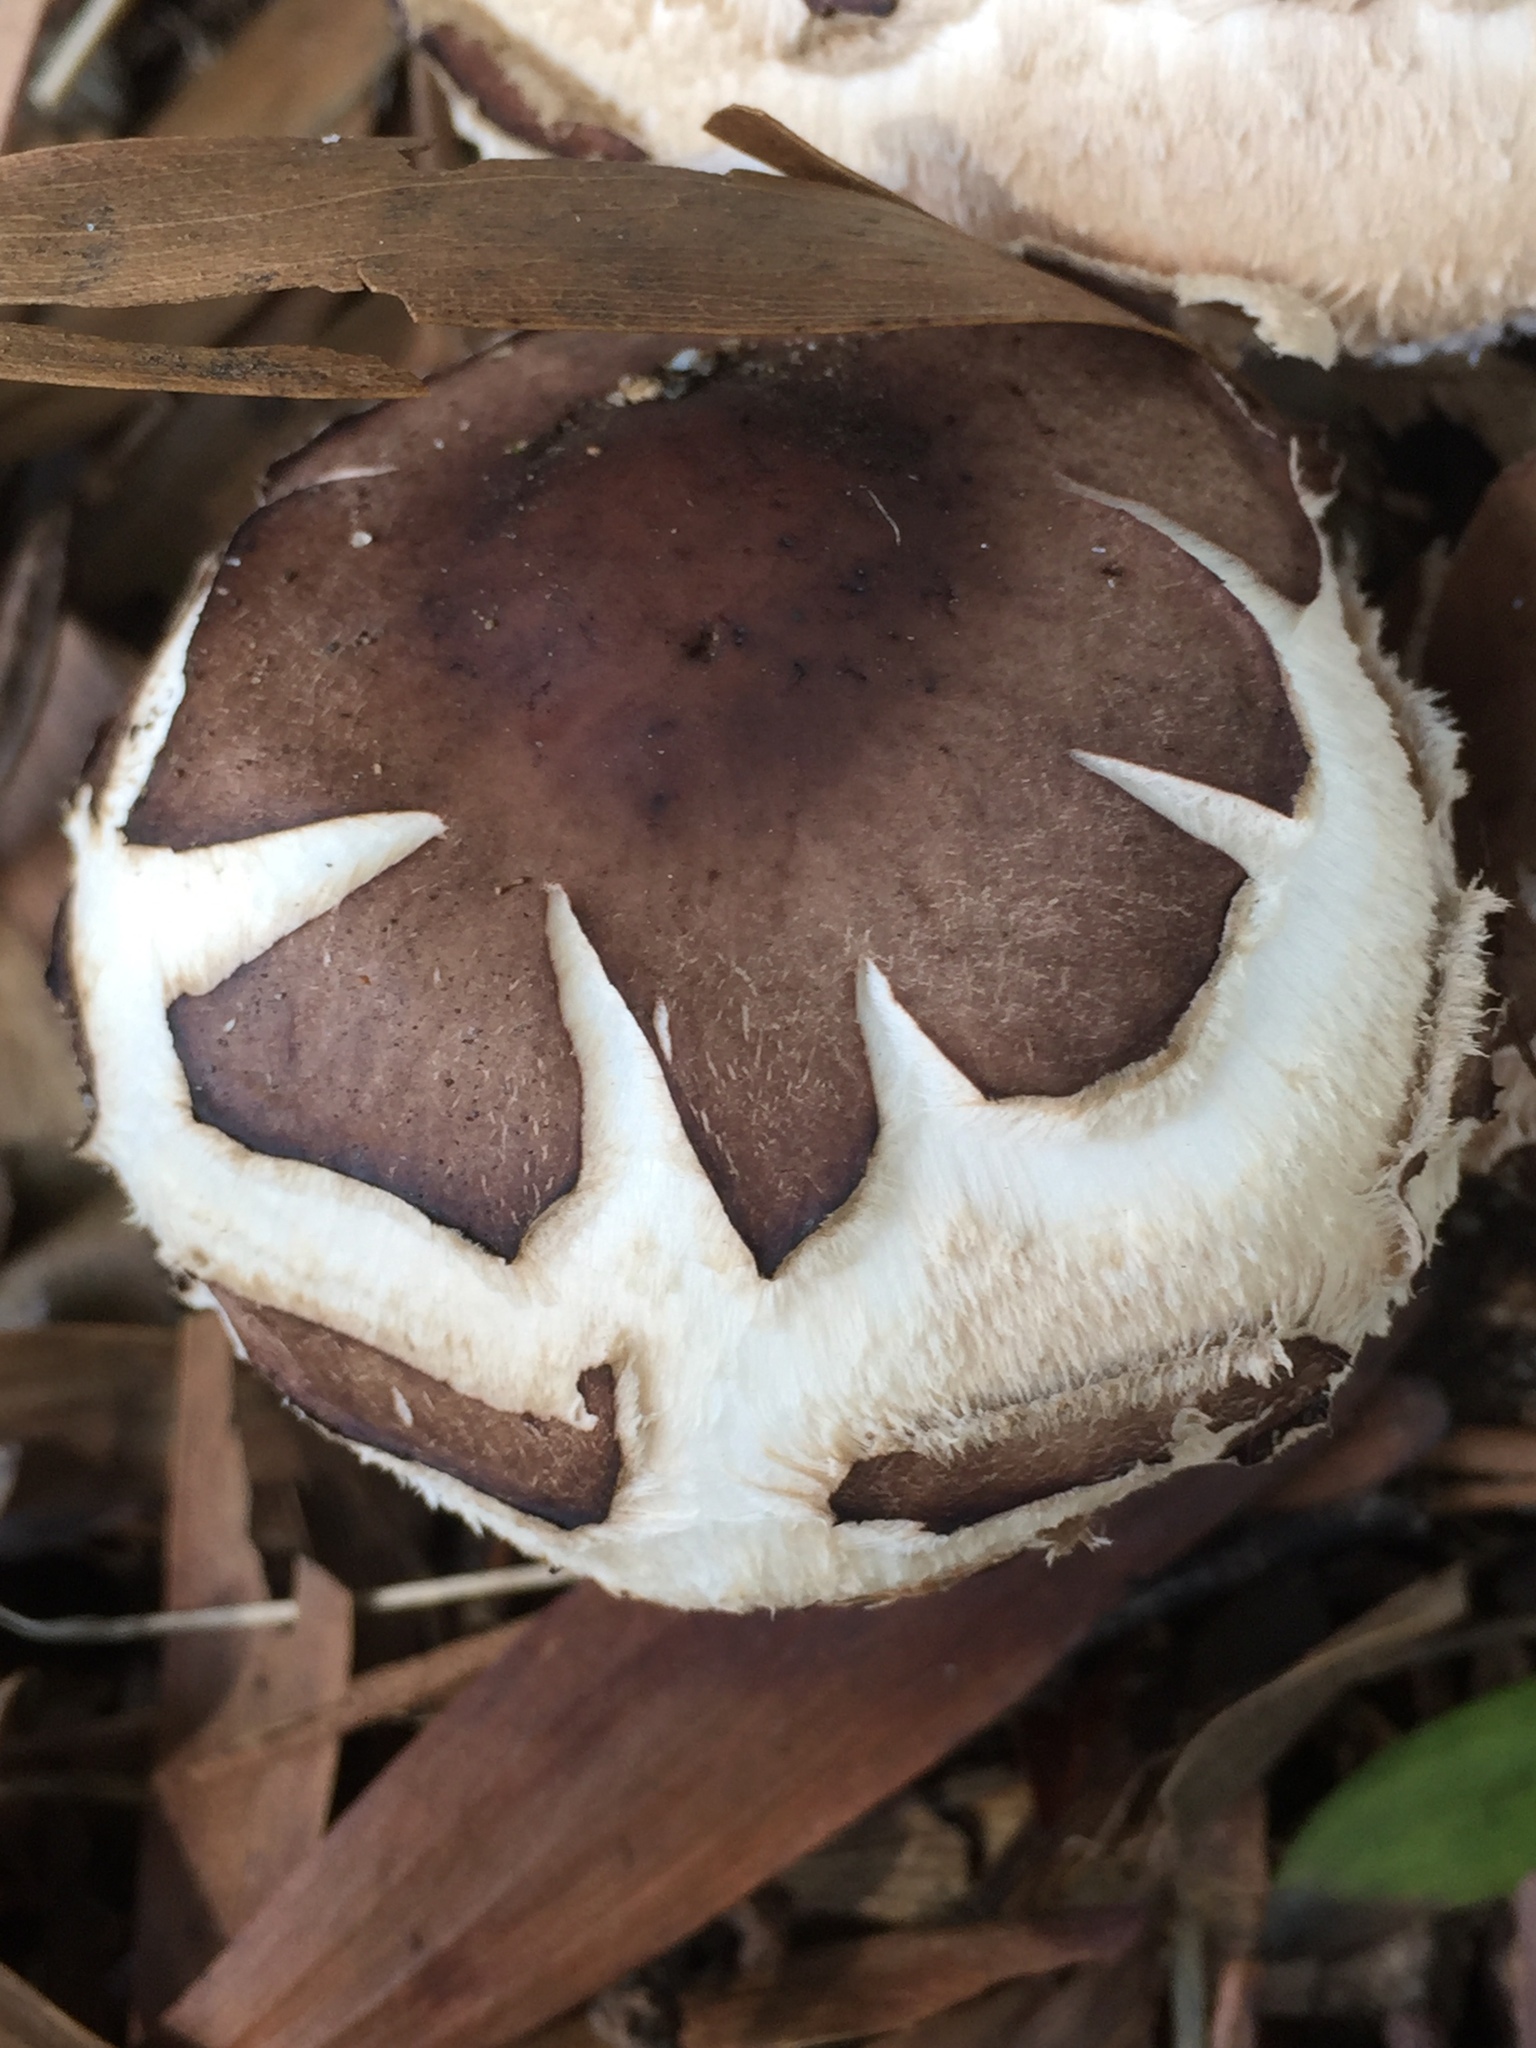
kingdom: Fungi
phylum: Basidiomycota
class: Agaricomycetes
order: Agaricales
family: Agaricaceae
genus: Chlorophyllum
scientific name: Chlorophyllum brunneum
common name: Brown parasol
